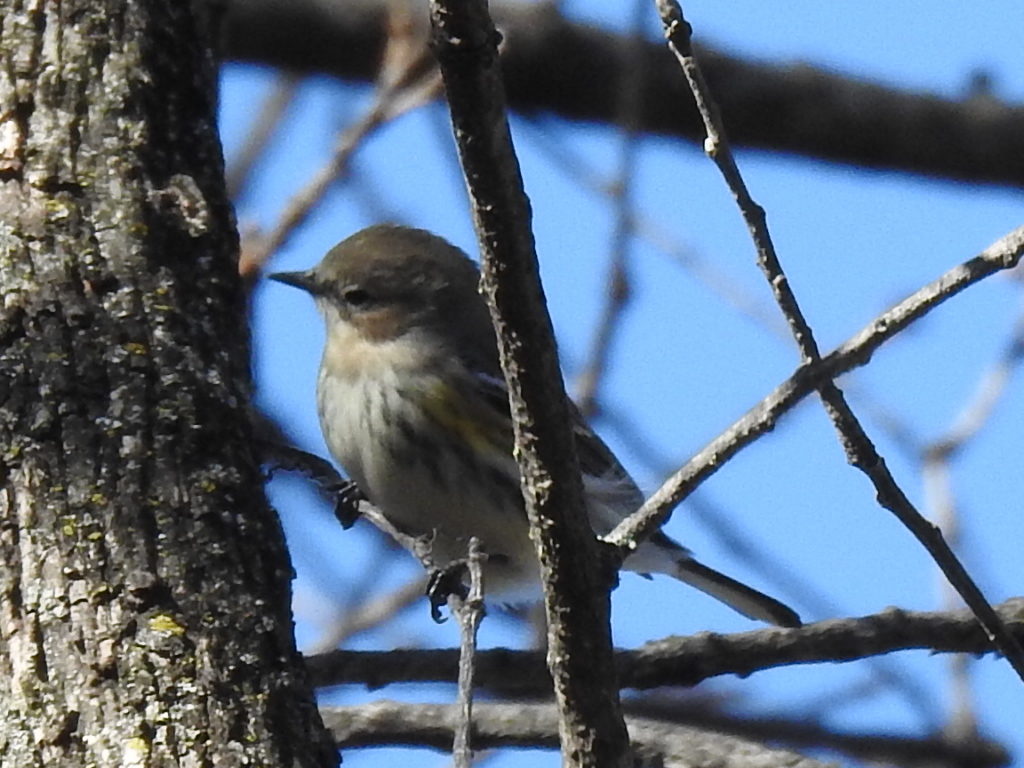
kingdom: Animalia
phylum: Chordata
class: Aves
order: Passeriformes
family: Parulidae
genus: Setophaga
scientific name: Setophaga coronata
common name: Myrtle warbler
